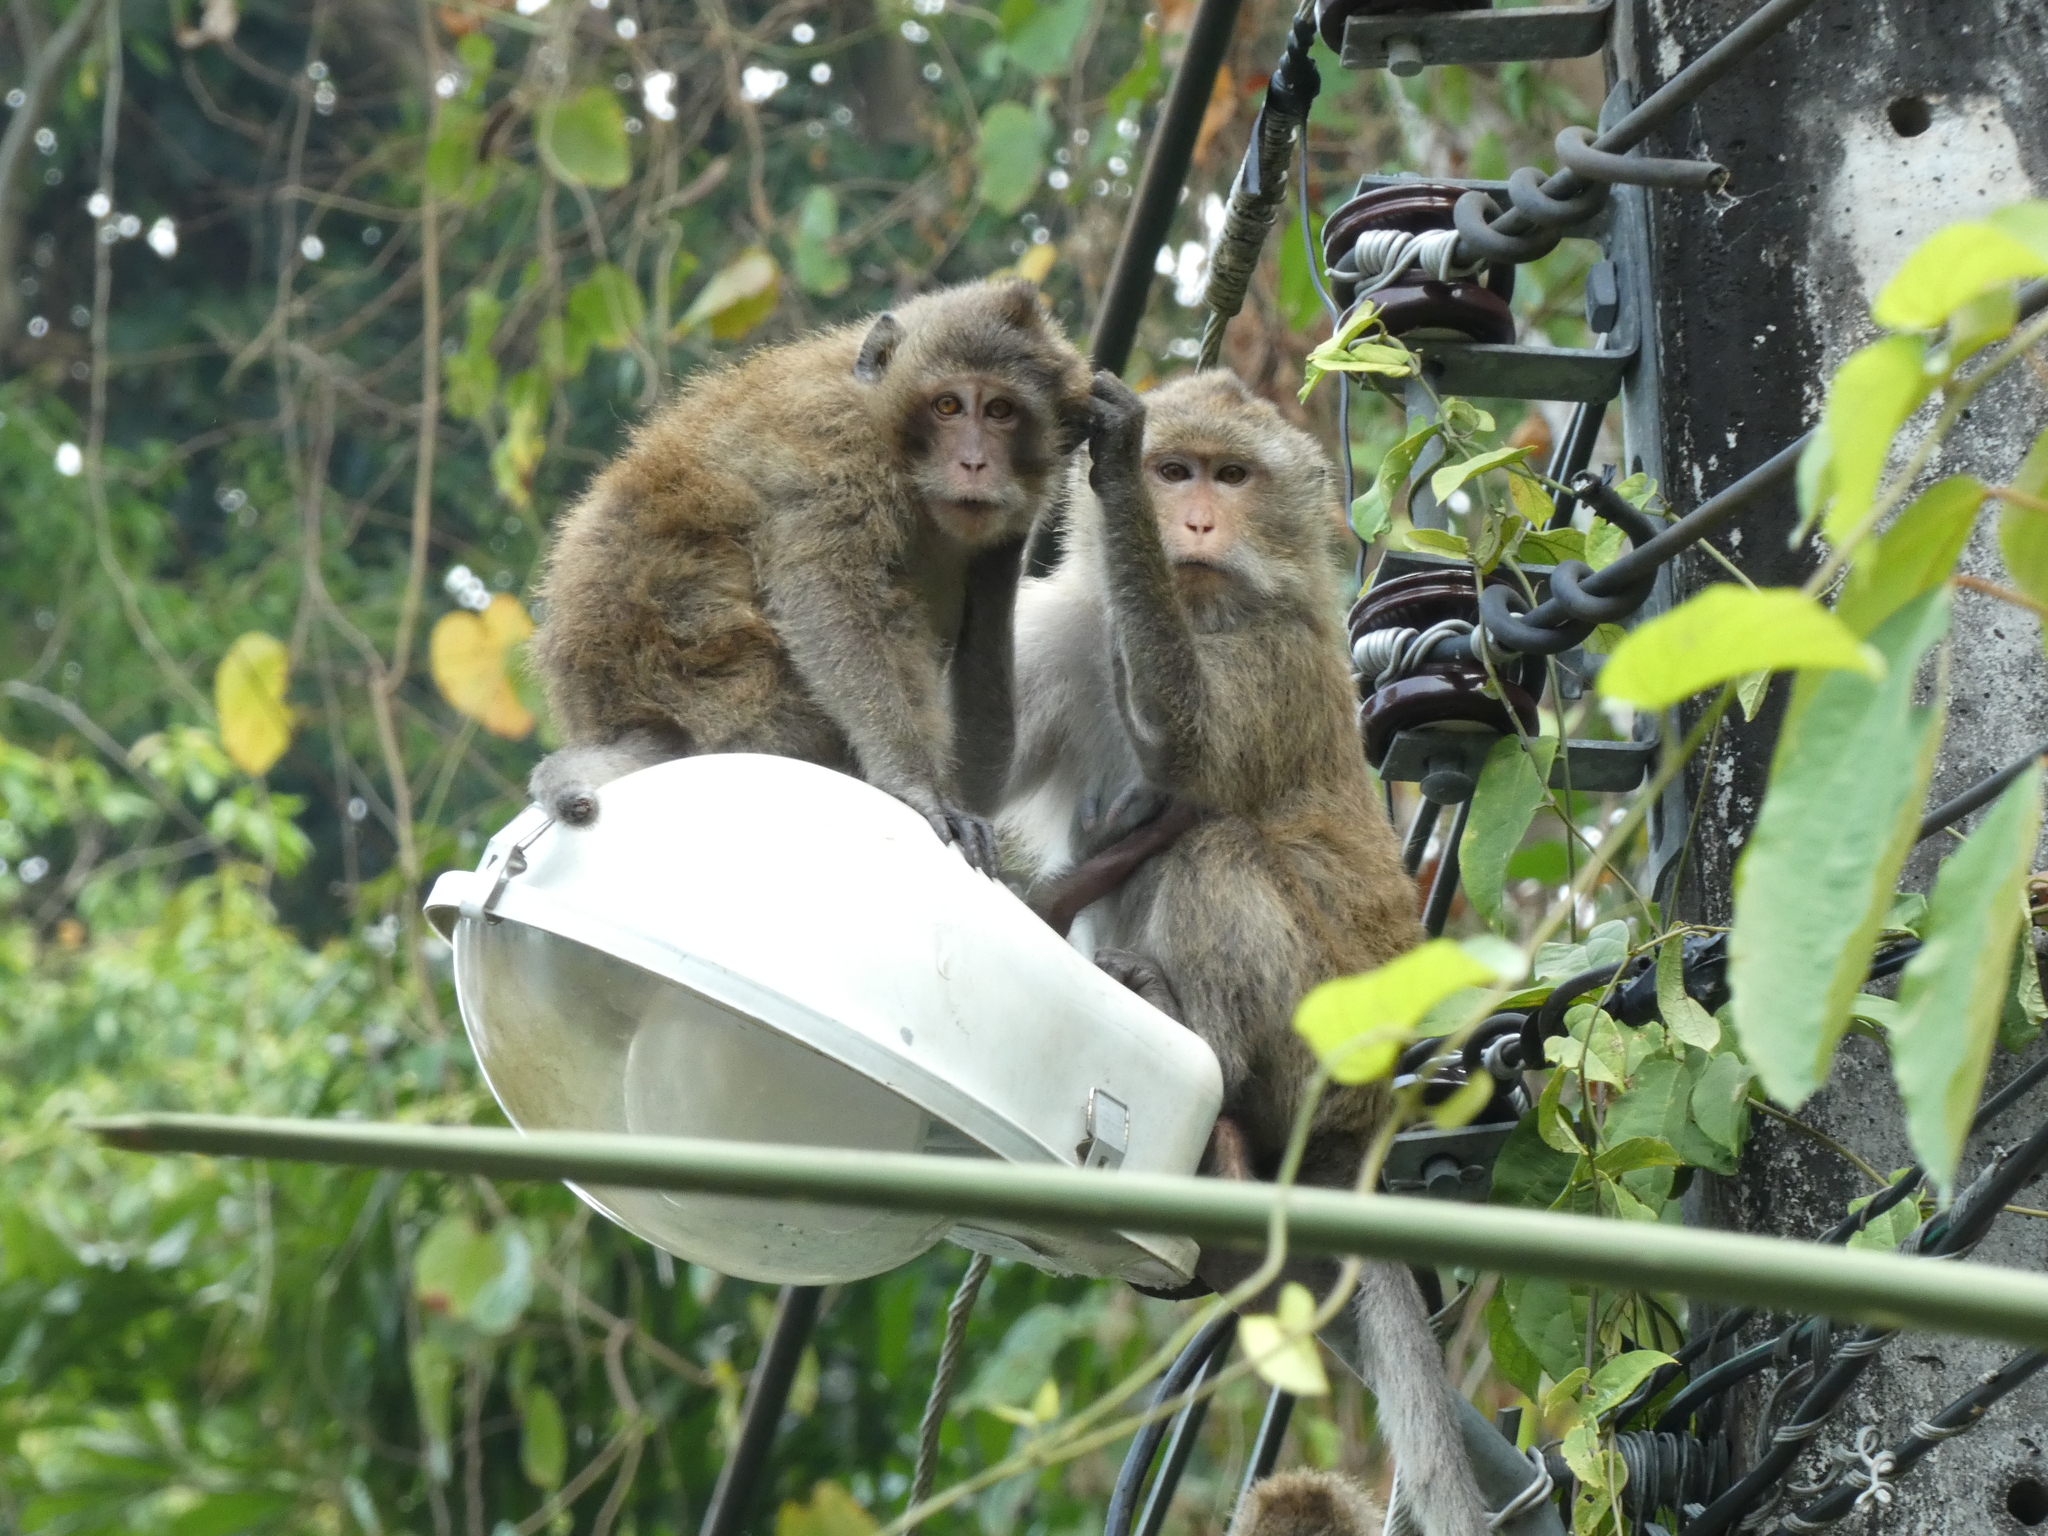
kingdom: Animalia
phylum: Chordata
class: Mammalia
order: Primates
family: Cercopithecidae
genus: Macaca
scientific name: Macaca fascicularis
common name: Crab-eating macaque
